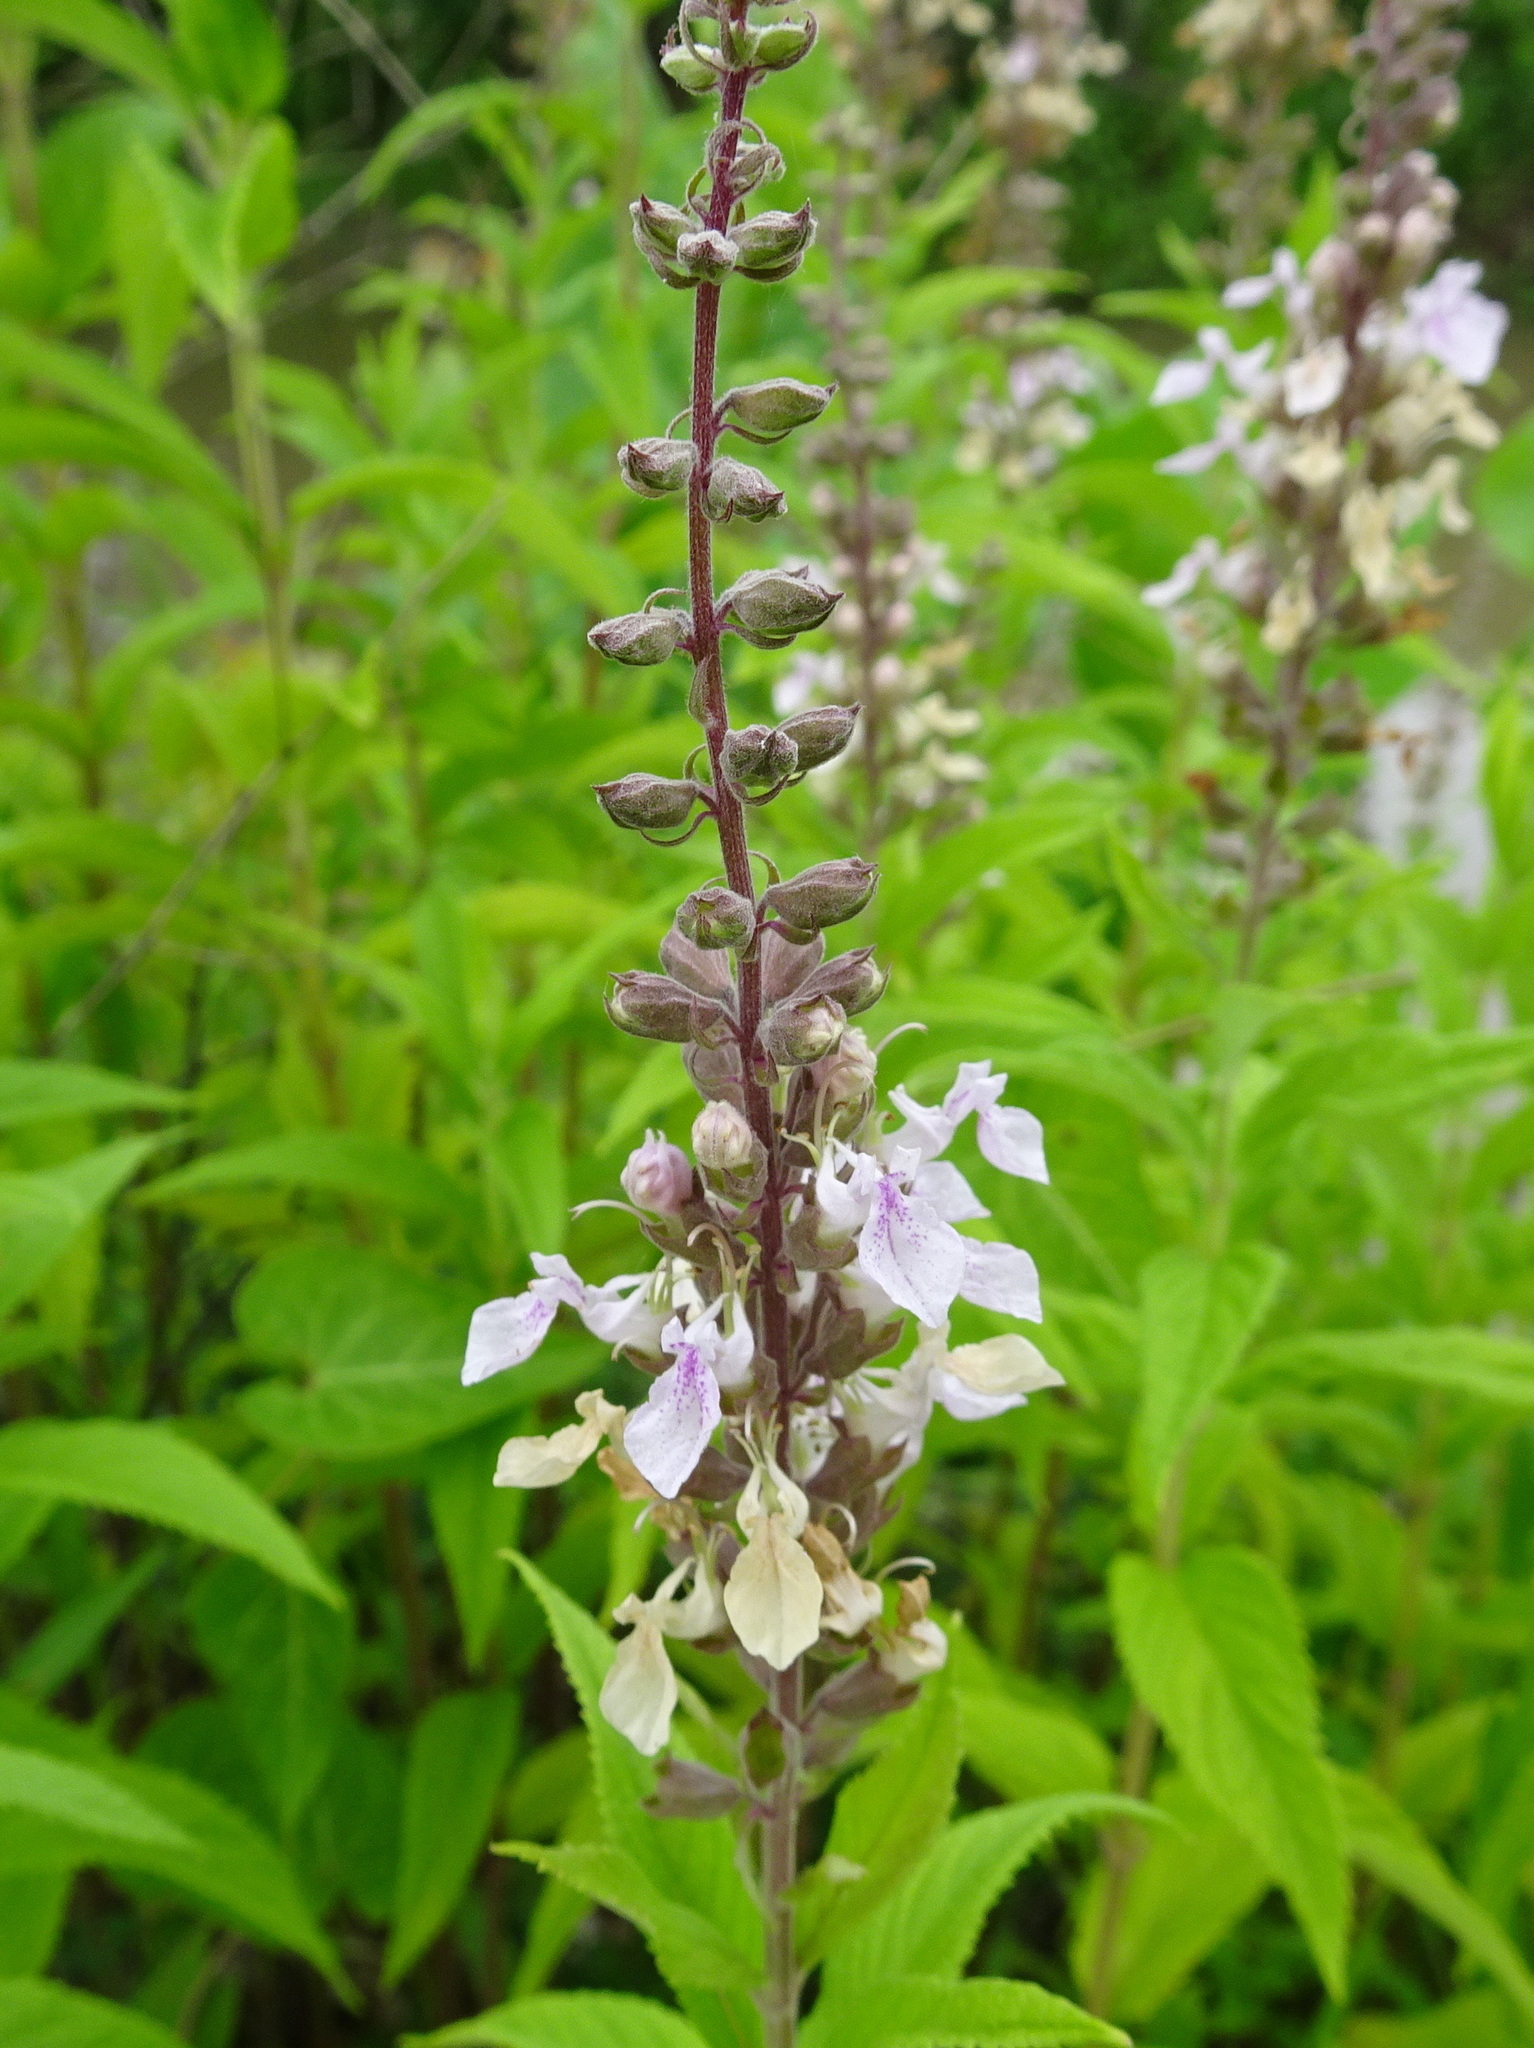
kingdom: Plantae
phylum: Tracheophyta
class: Magnoliopsida
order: Lamiales
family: Lamiaceae
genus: Teucrium
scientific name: Teucrium canadense
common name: American germander
